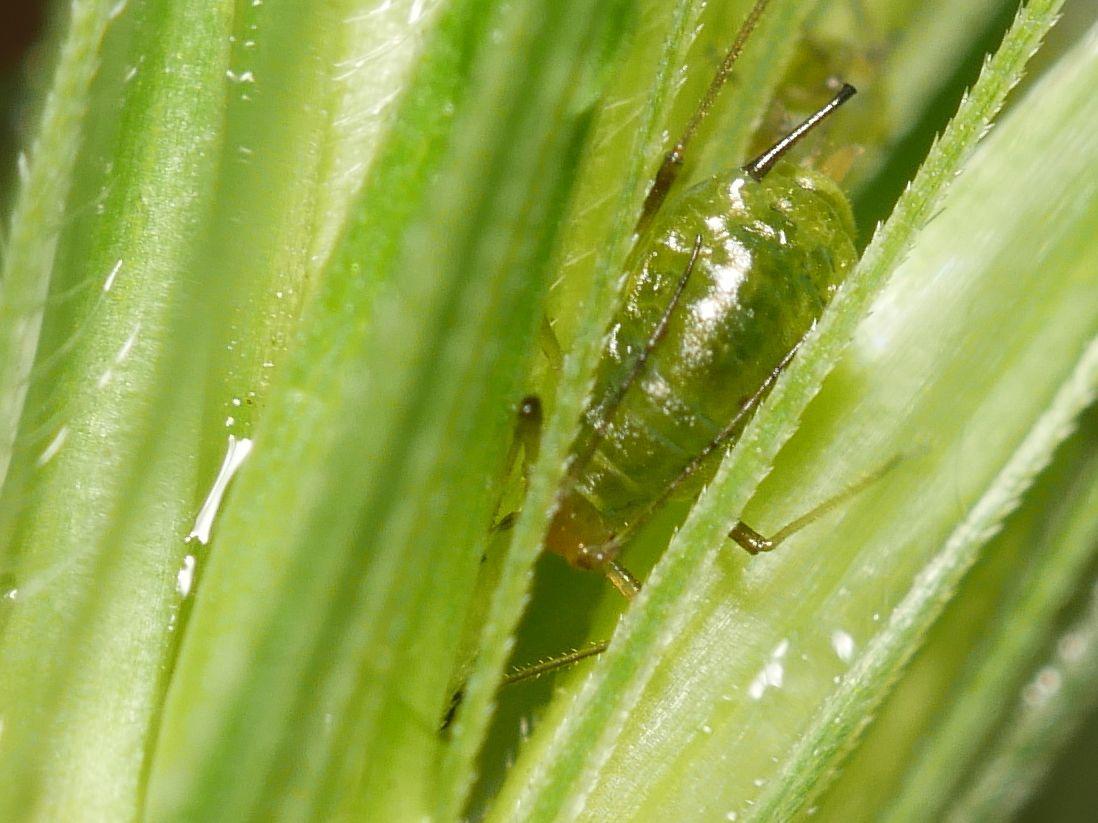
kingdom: Animalia
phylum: Arthropoda
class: Insecta
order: Hemiptera
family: Aphididae
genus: Sitobion
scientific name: Sitobion fragariae
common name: Blackberry cereal aphid
